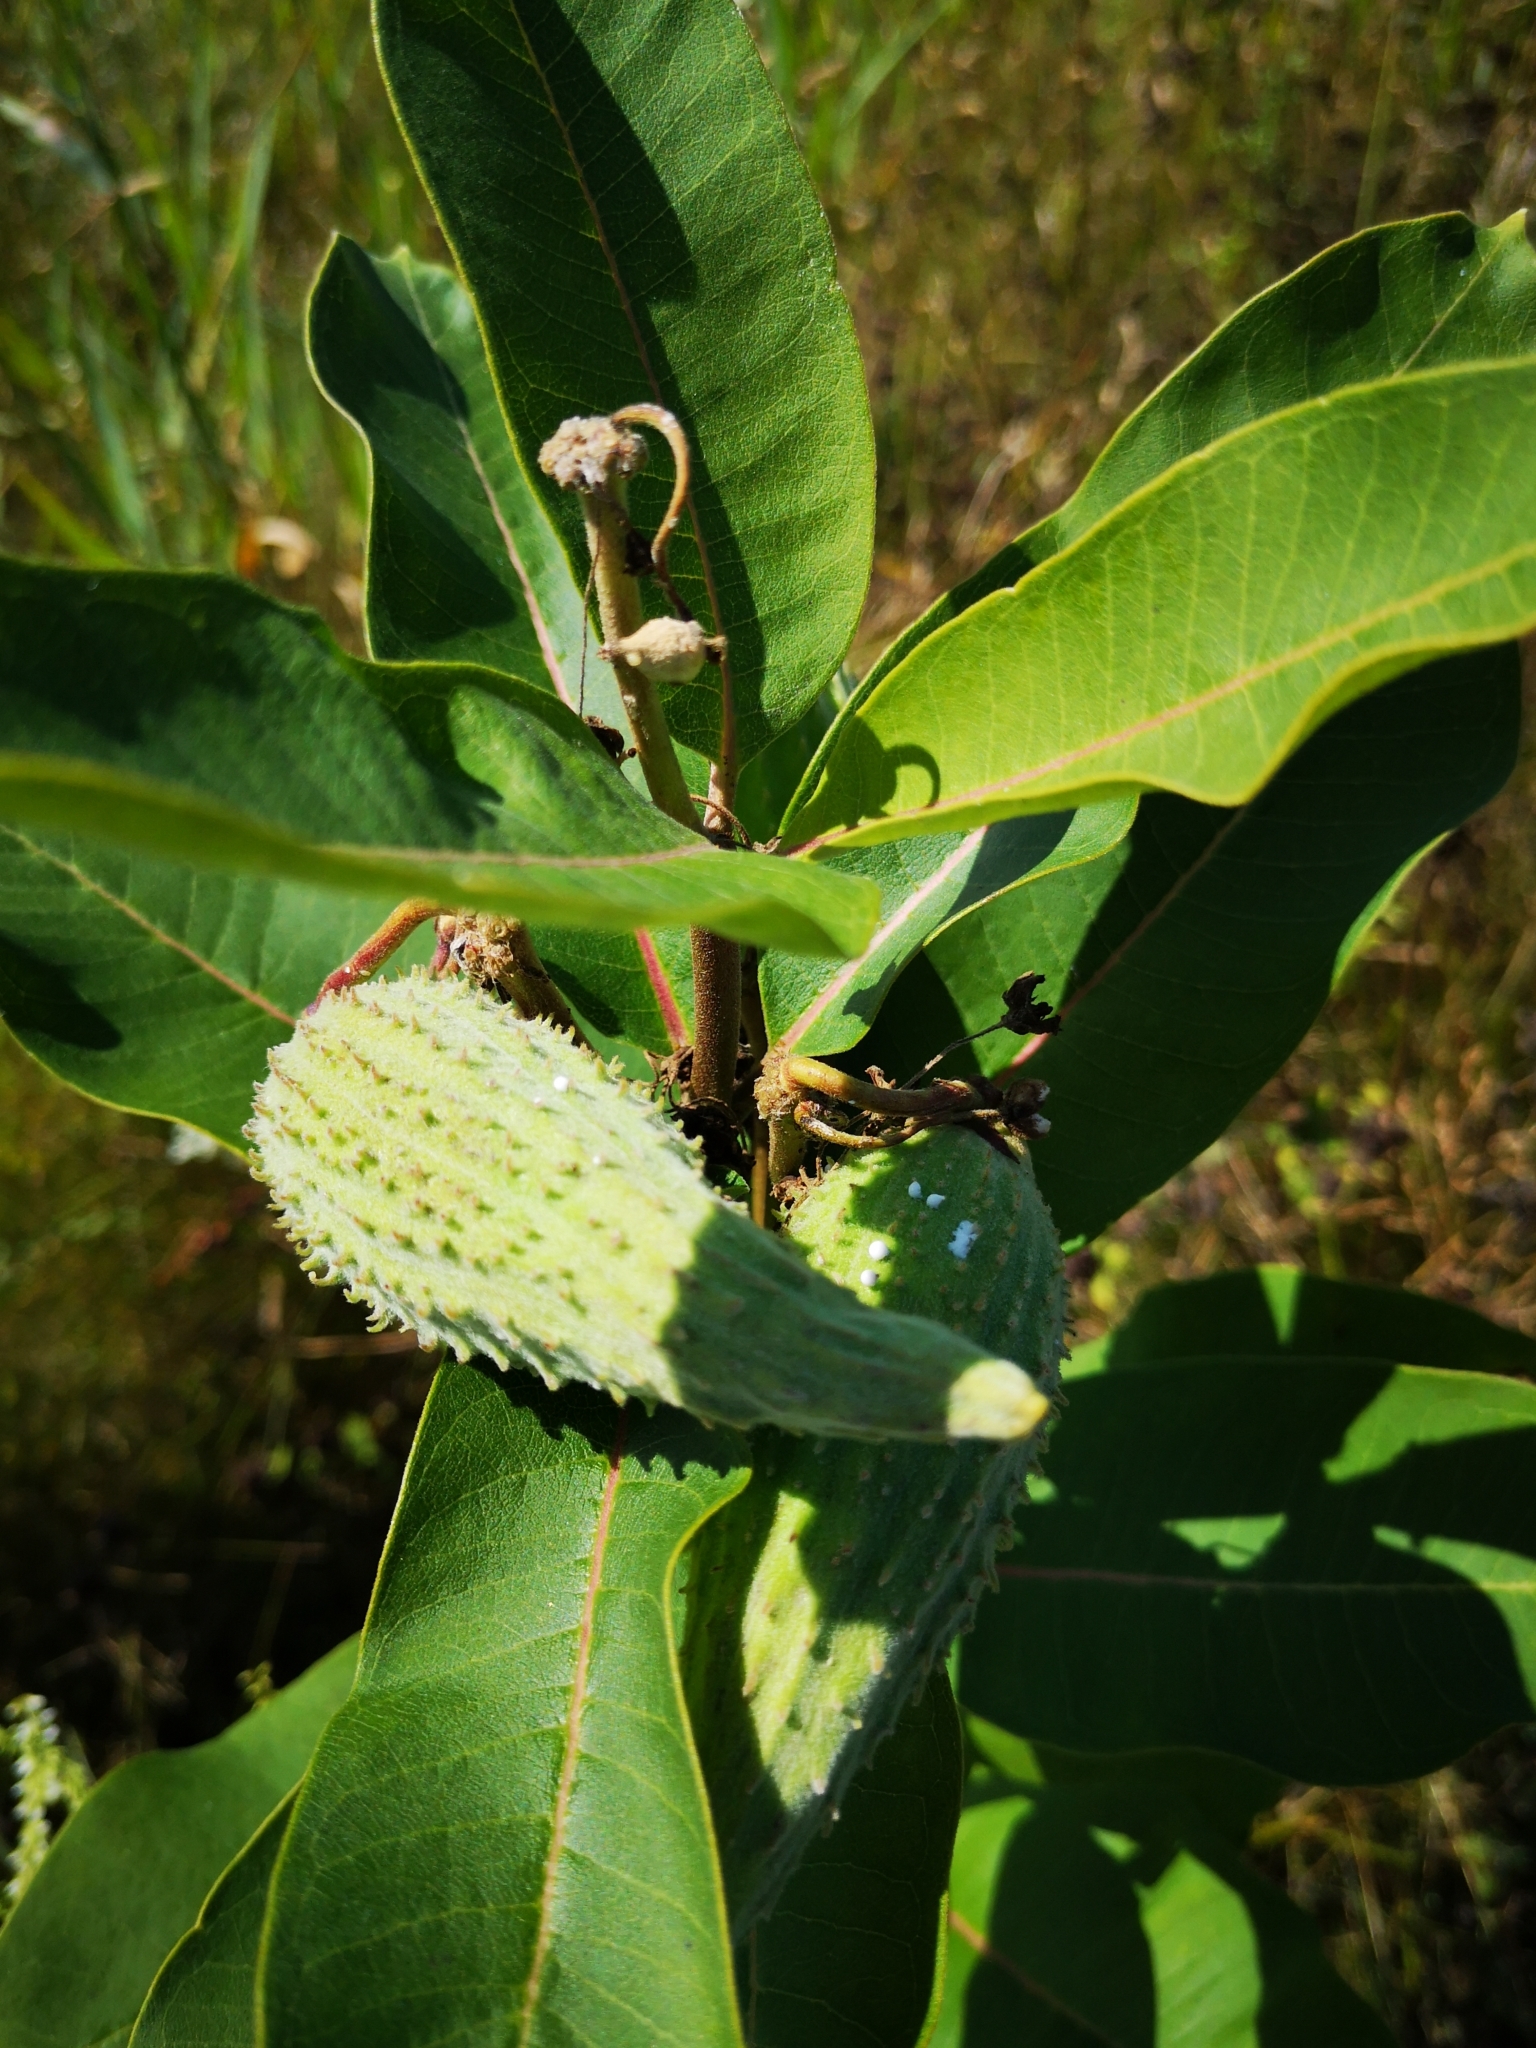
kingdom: Plantae
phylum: Tracheophyta
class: Magnoliopsida
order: Gentianales
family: Apocynaceae
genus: Asclepias
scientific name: Asclepias syriaca
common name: Common milkweed
